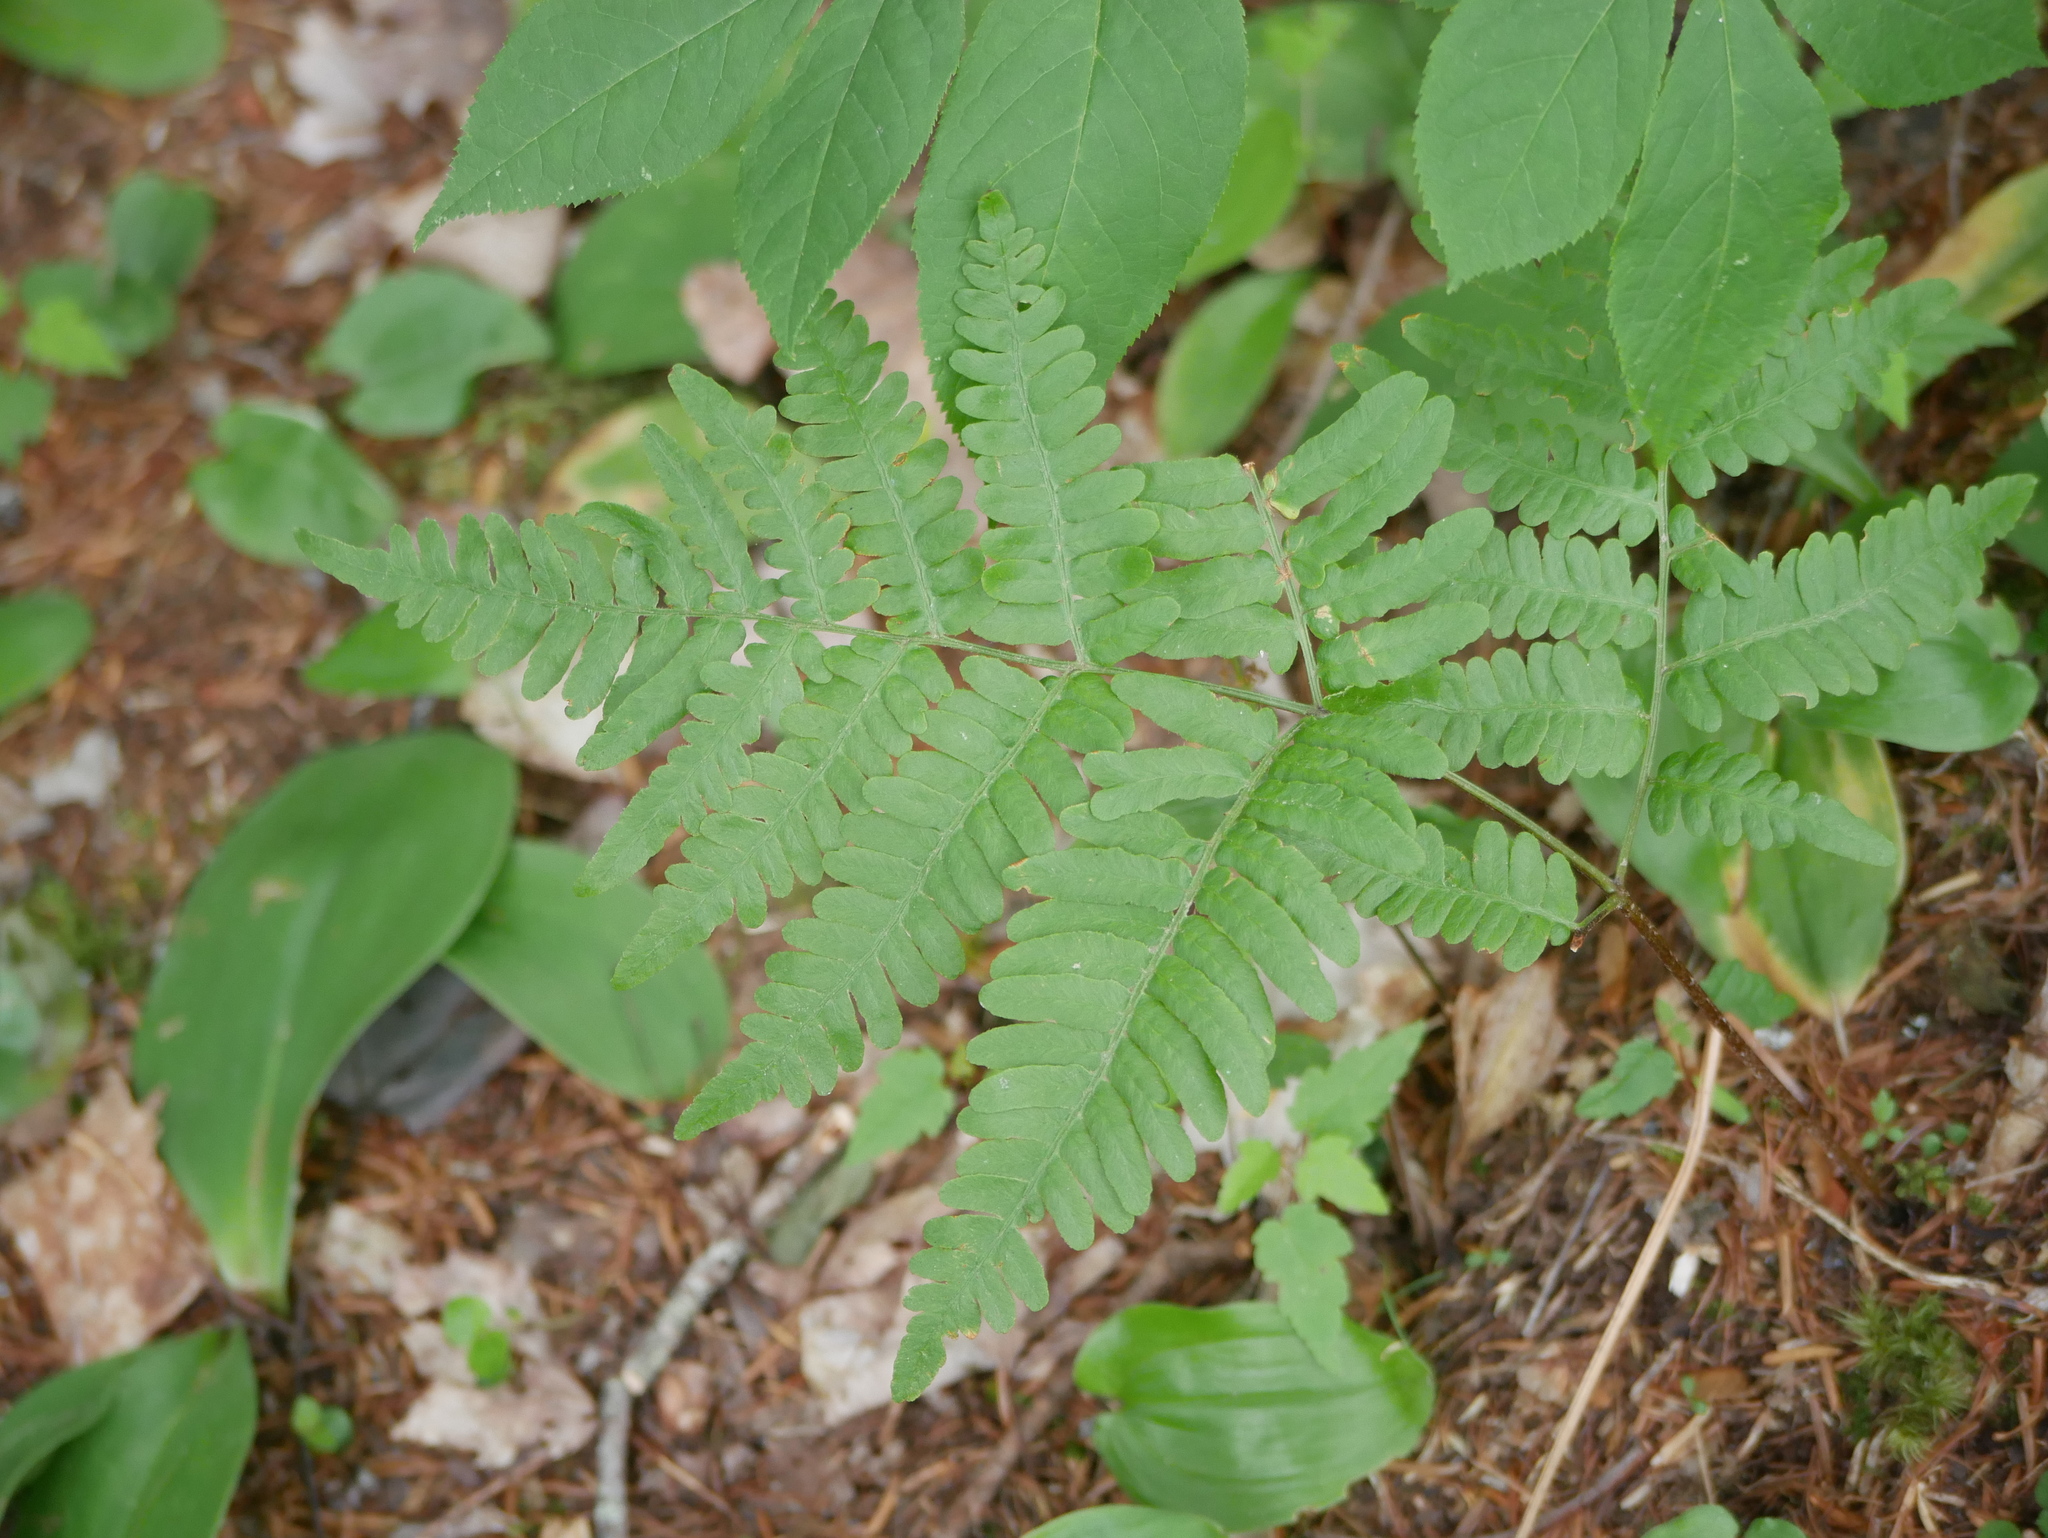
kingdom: Plantae
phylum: Tracheophyta
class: Polypodiopsida
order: Polypodiales
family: Dennstaedtiaceae
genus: Pteridium
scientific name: Pteridium aquilinum
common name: Bracken
